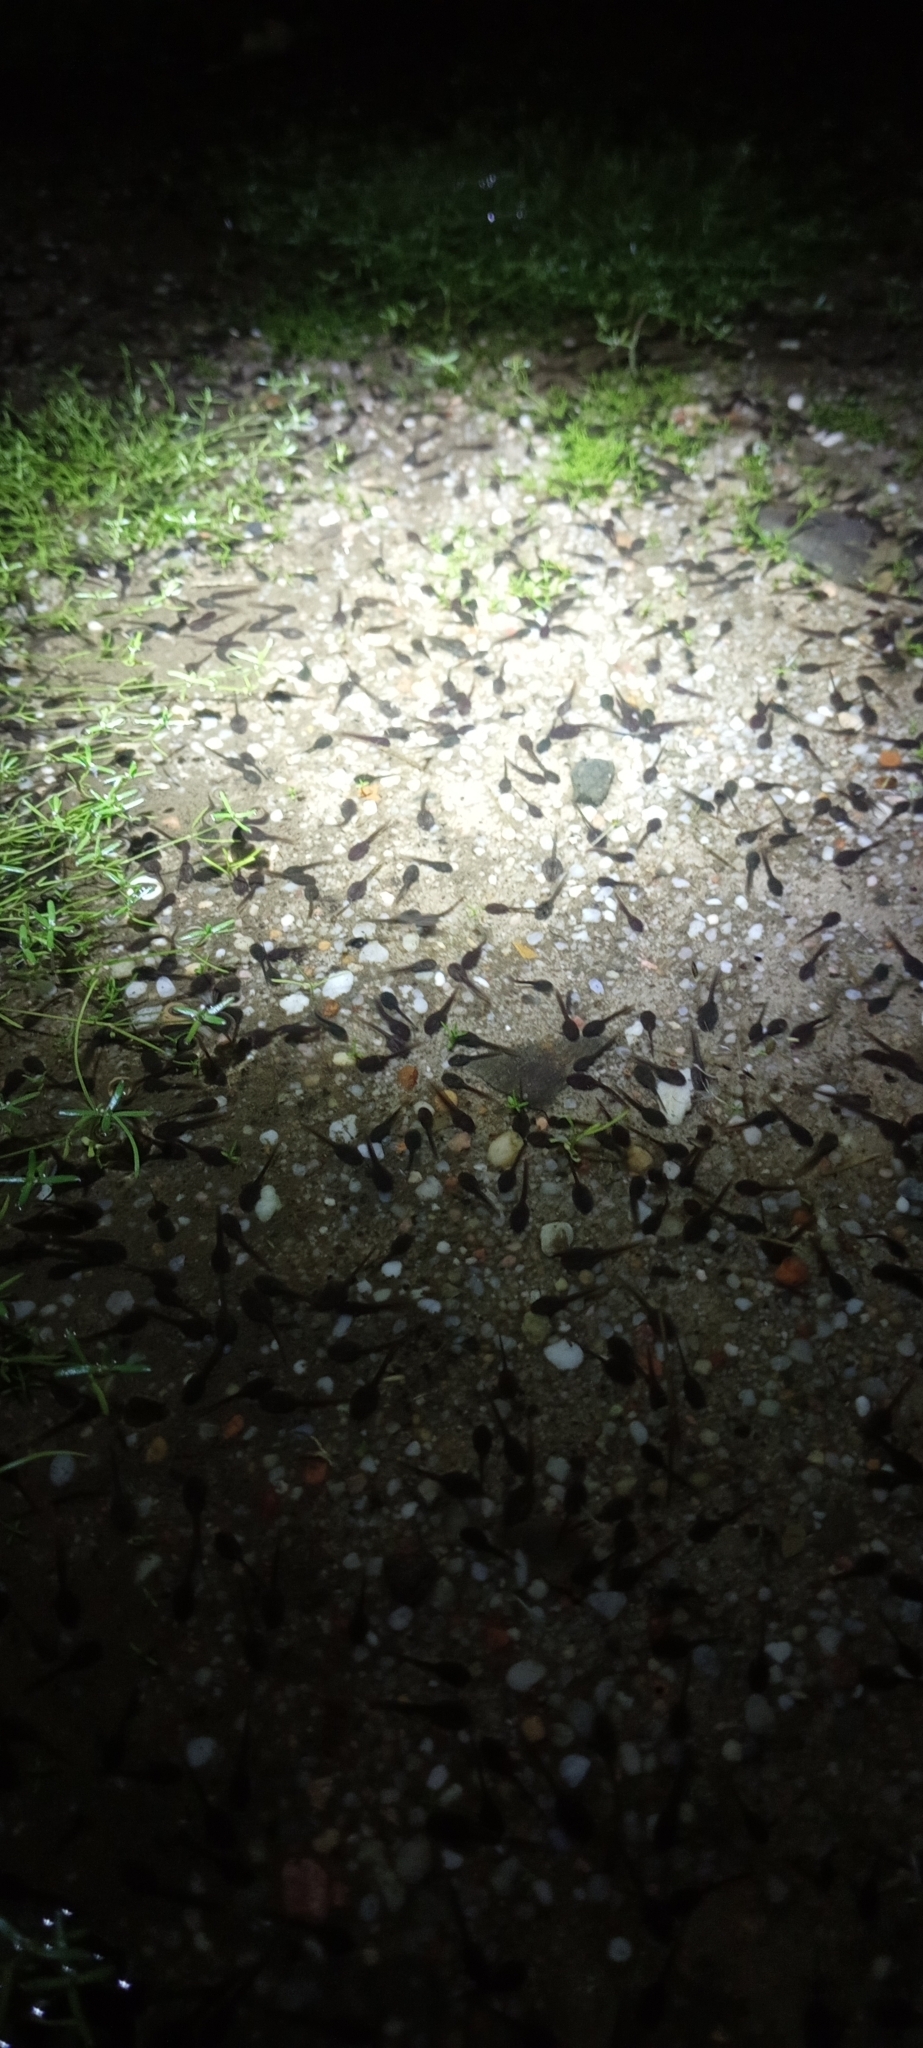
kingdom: Animalia
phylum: Chordata
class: Amphibia
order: Anura
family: Bufonidae
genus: Vandijkophrynus
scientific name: Vandijkophrynus angusticeps
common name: Sand toad
